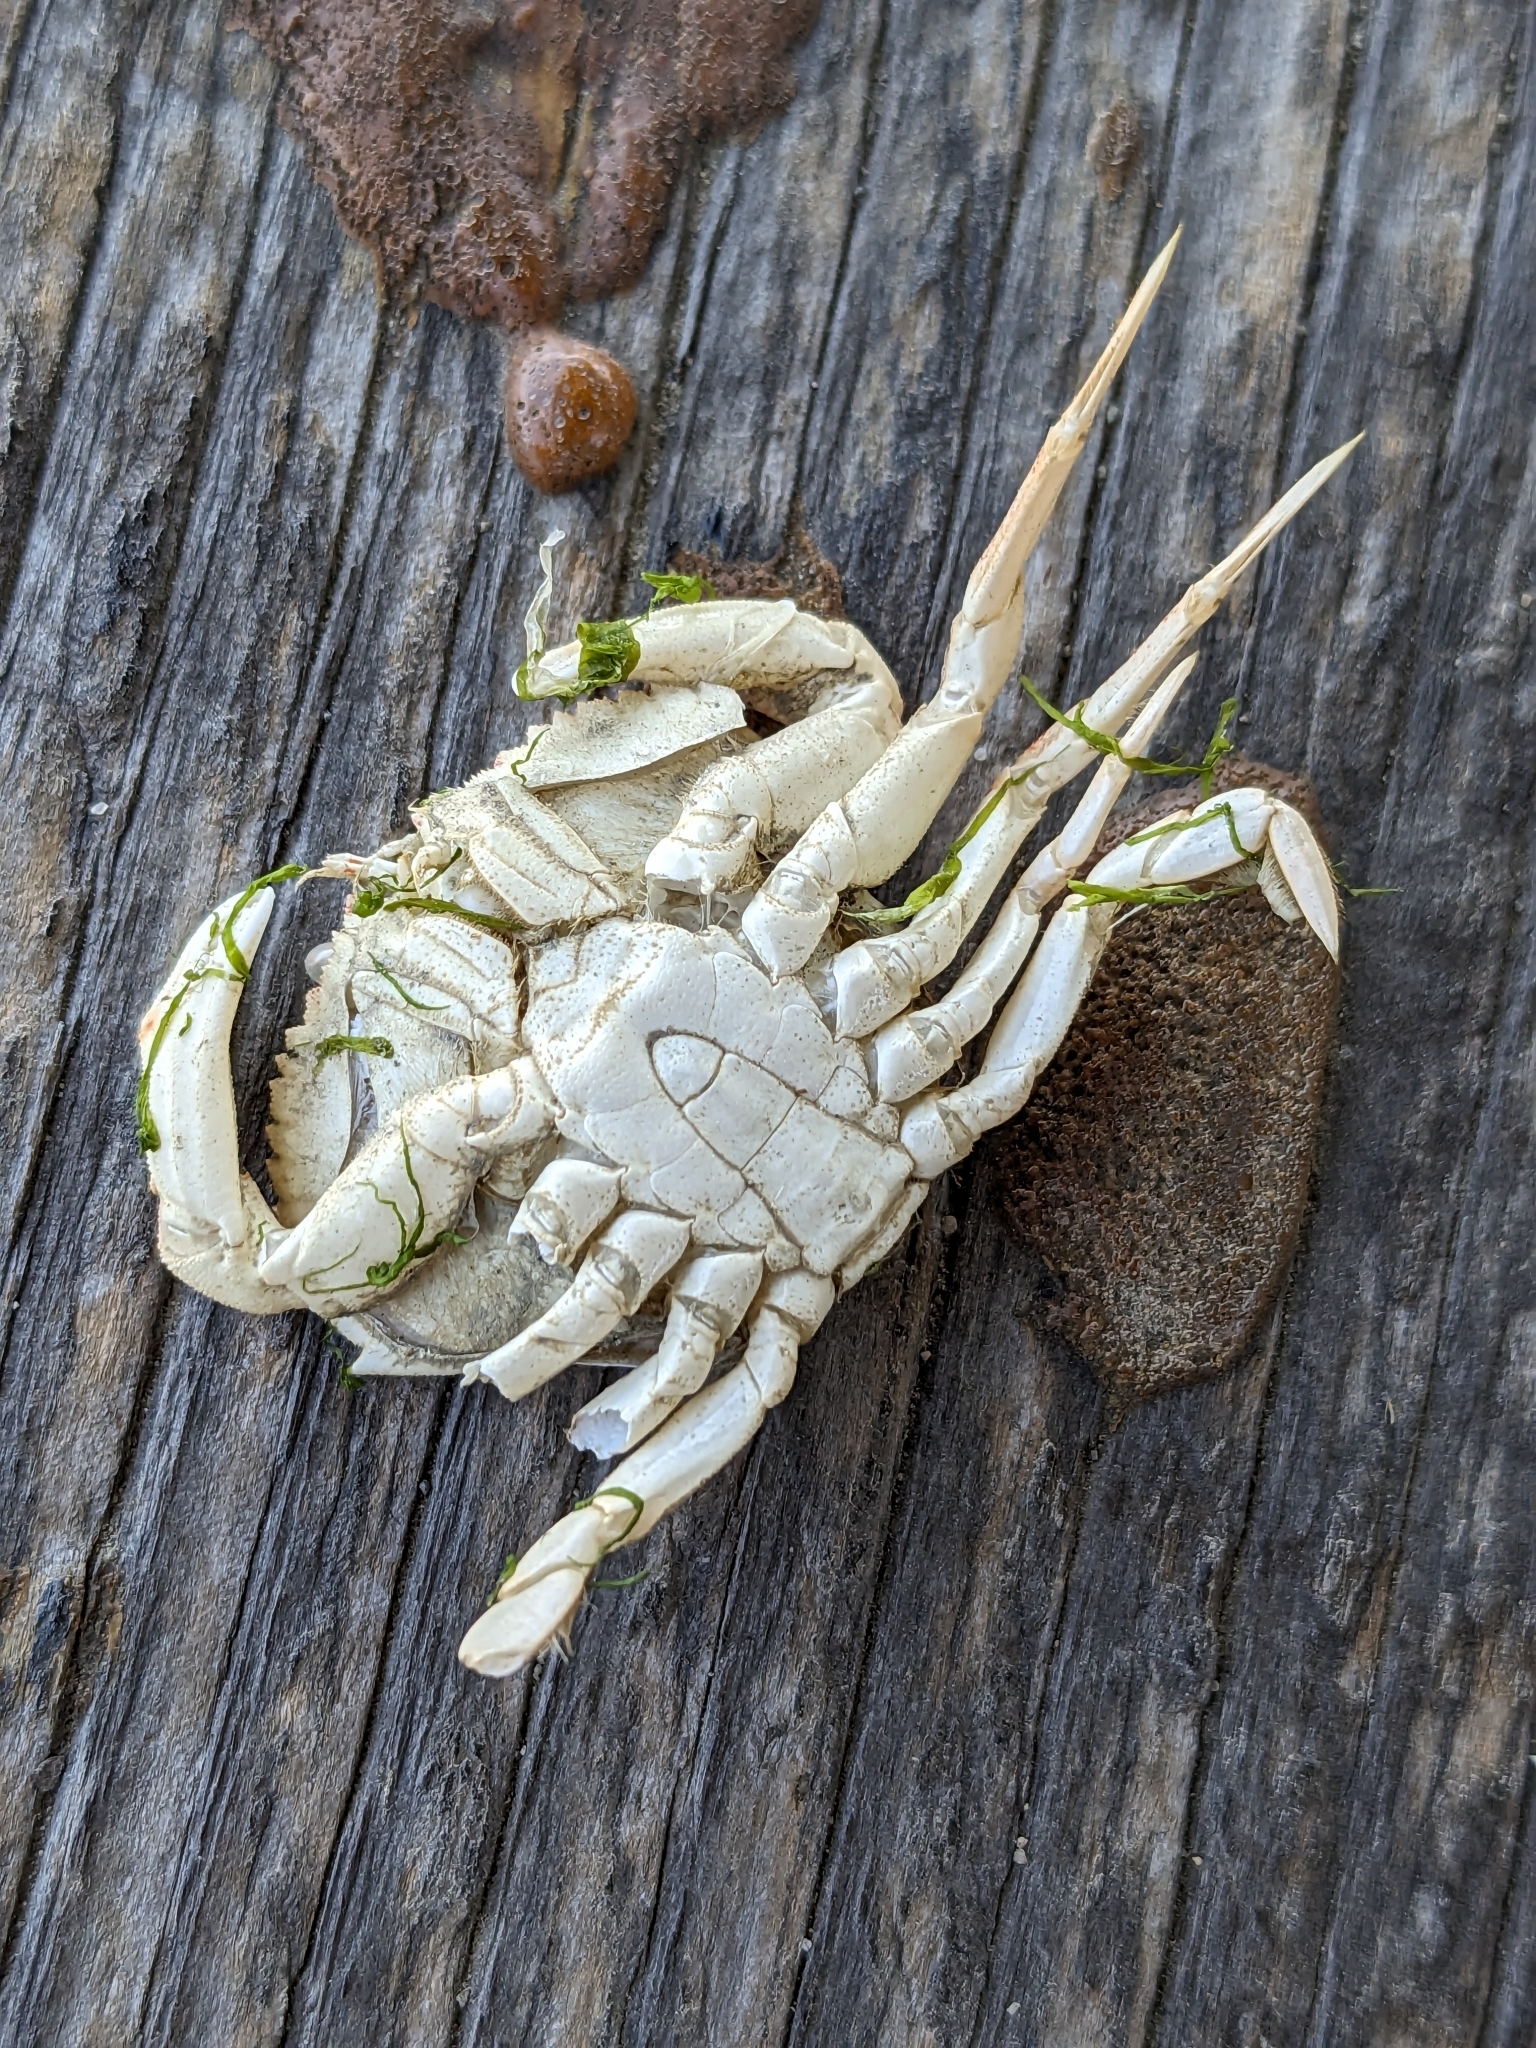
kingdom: Animalia
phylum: Arthropoda
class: Malacostraca
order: Decapoda
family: Cancridae
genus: Metacarcinus
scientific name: Metacarcinus magister
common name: Californian crab
